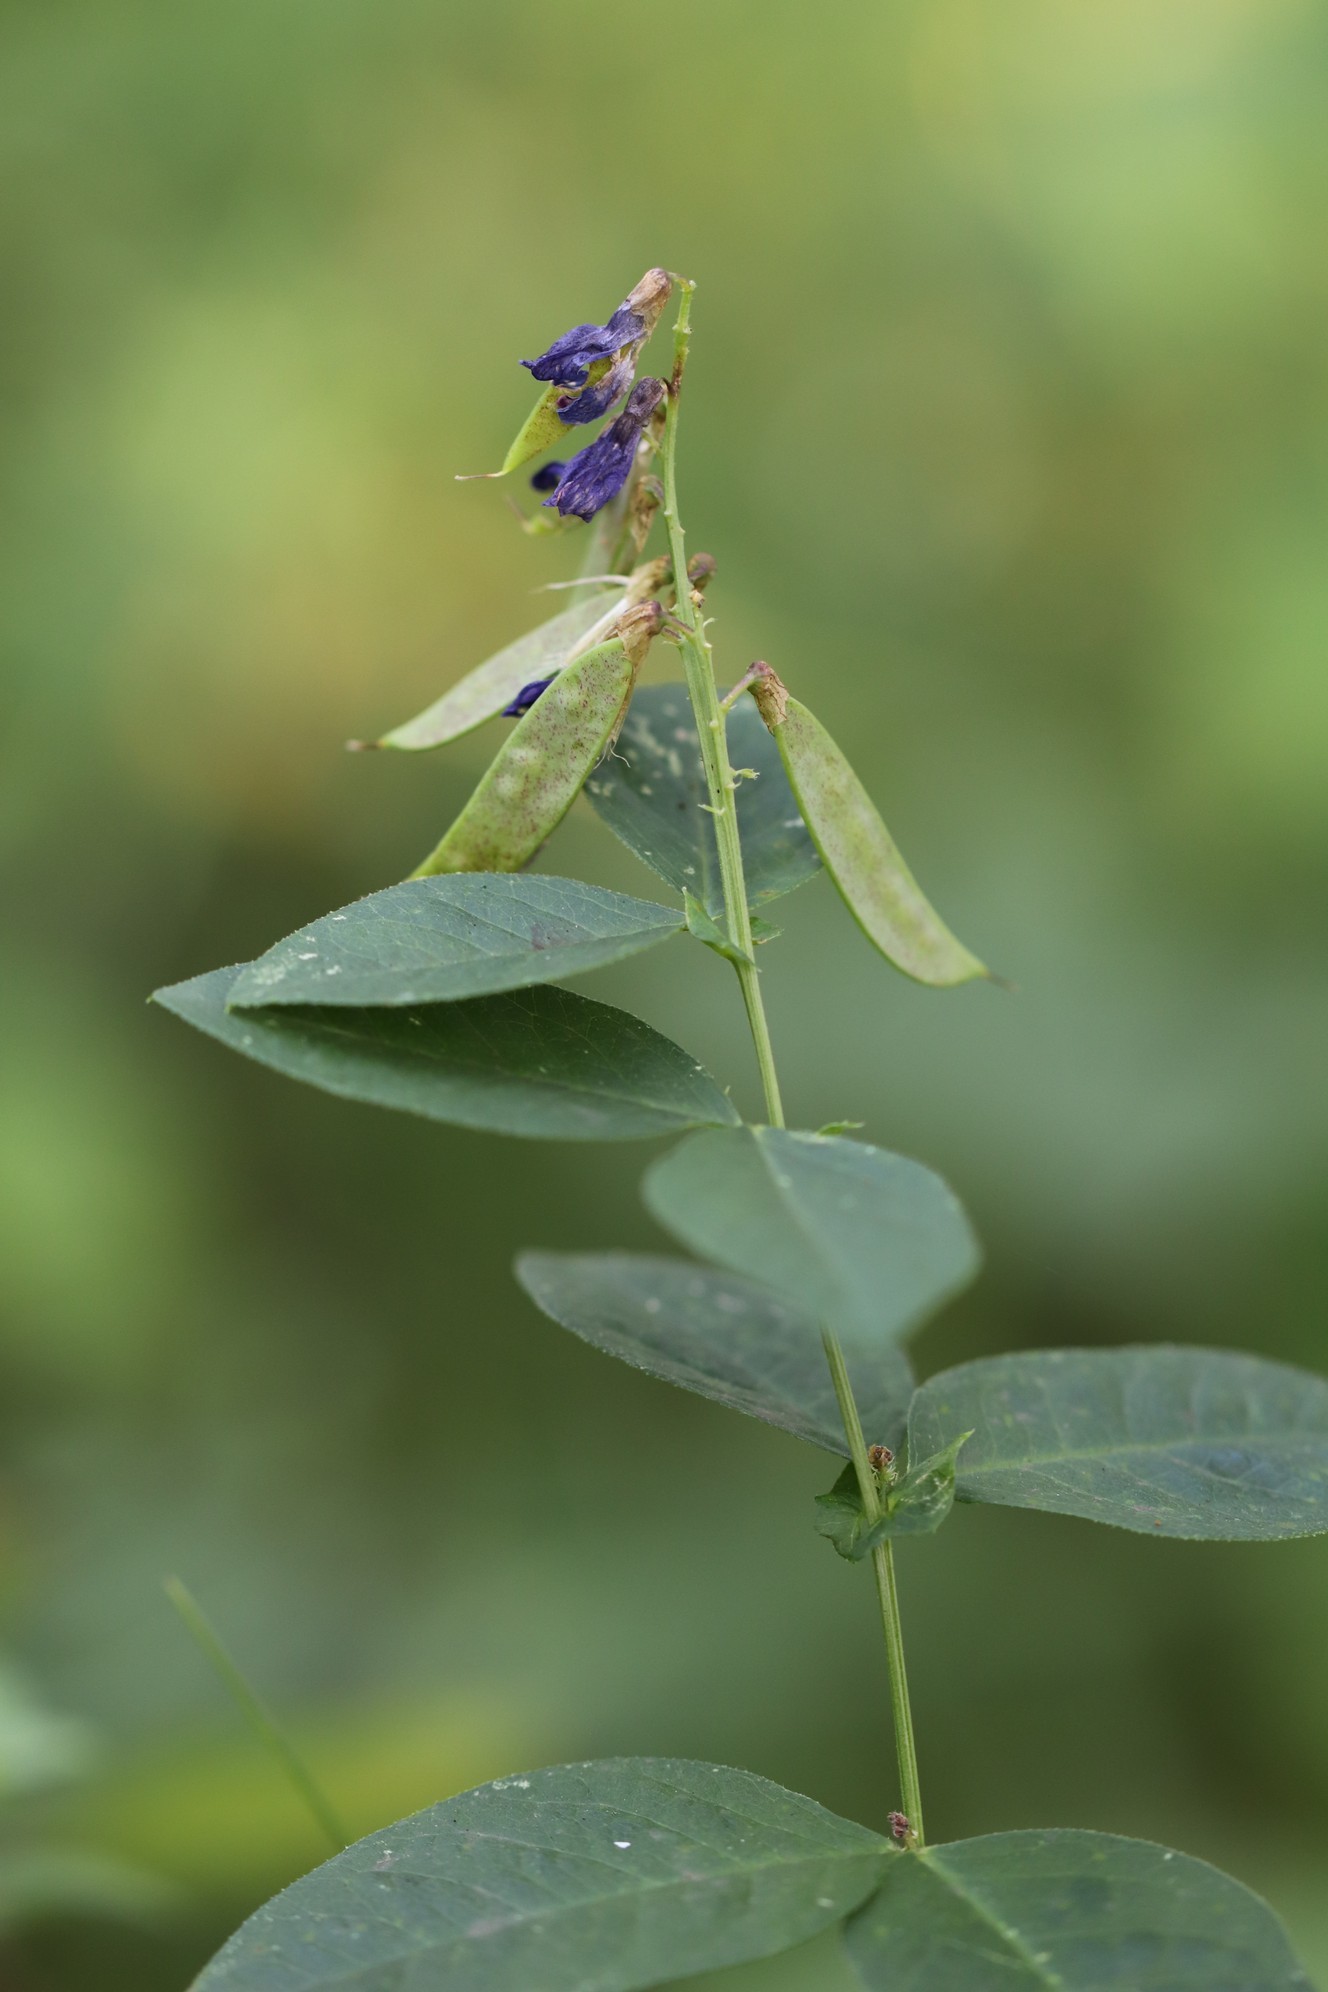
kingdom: Plantae
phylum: Tracheophyta
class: Magnoliopsida
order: Fabales
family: Fabaceae
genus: Vicia
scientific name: Vicia unijuga
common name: Two-leaf vetch
